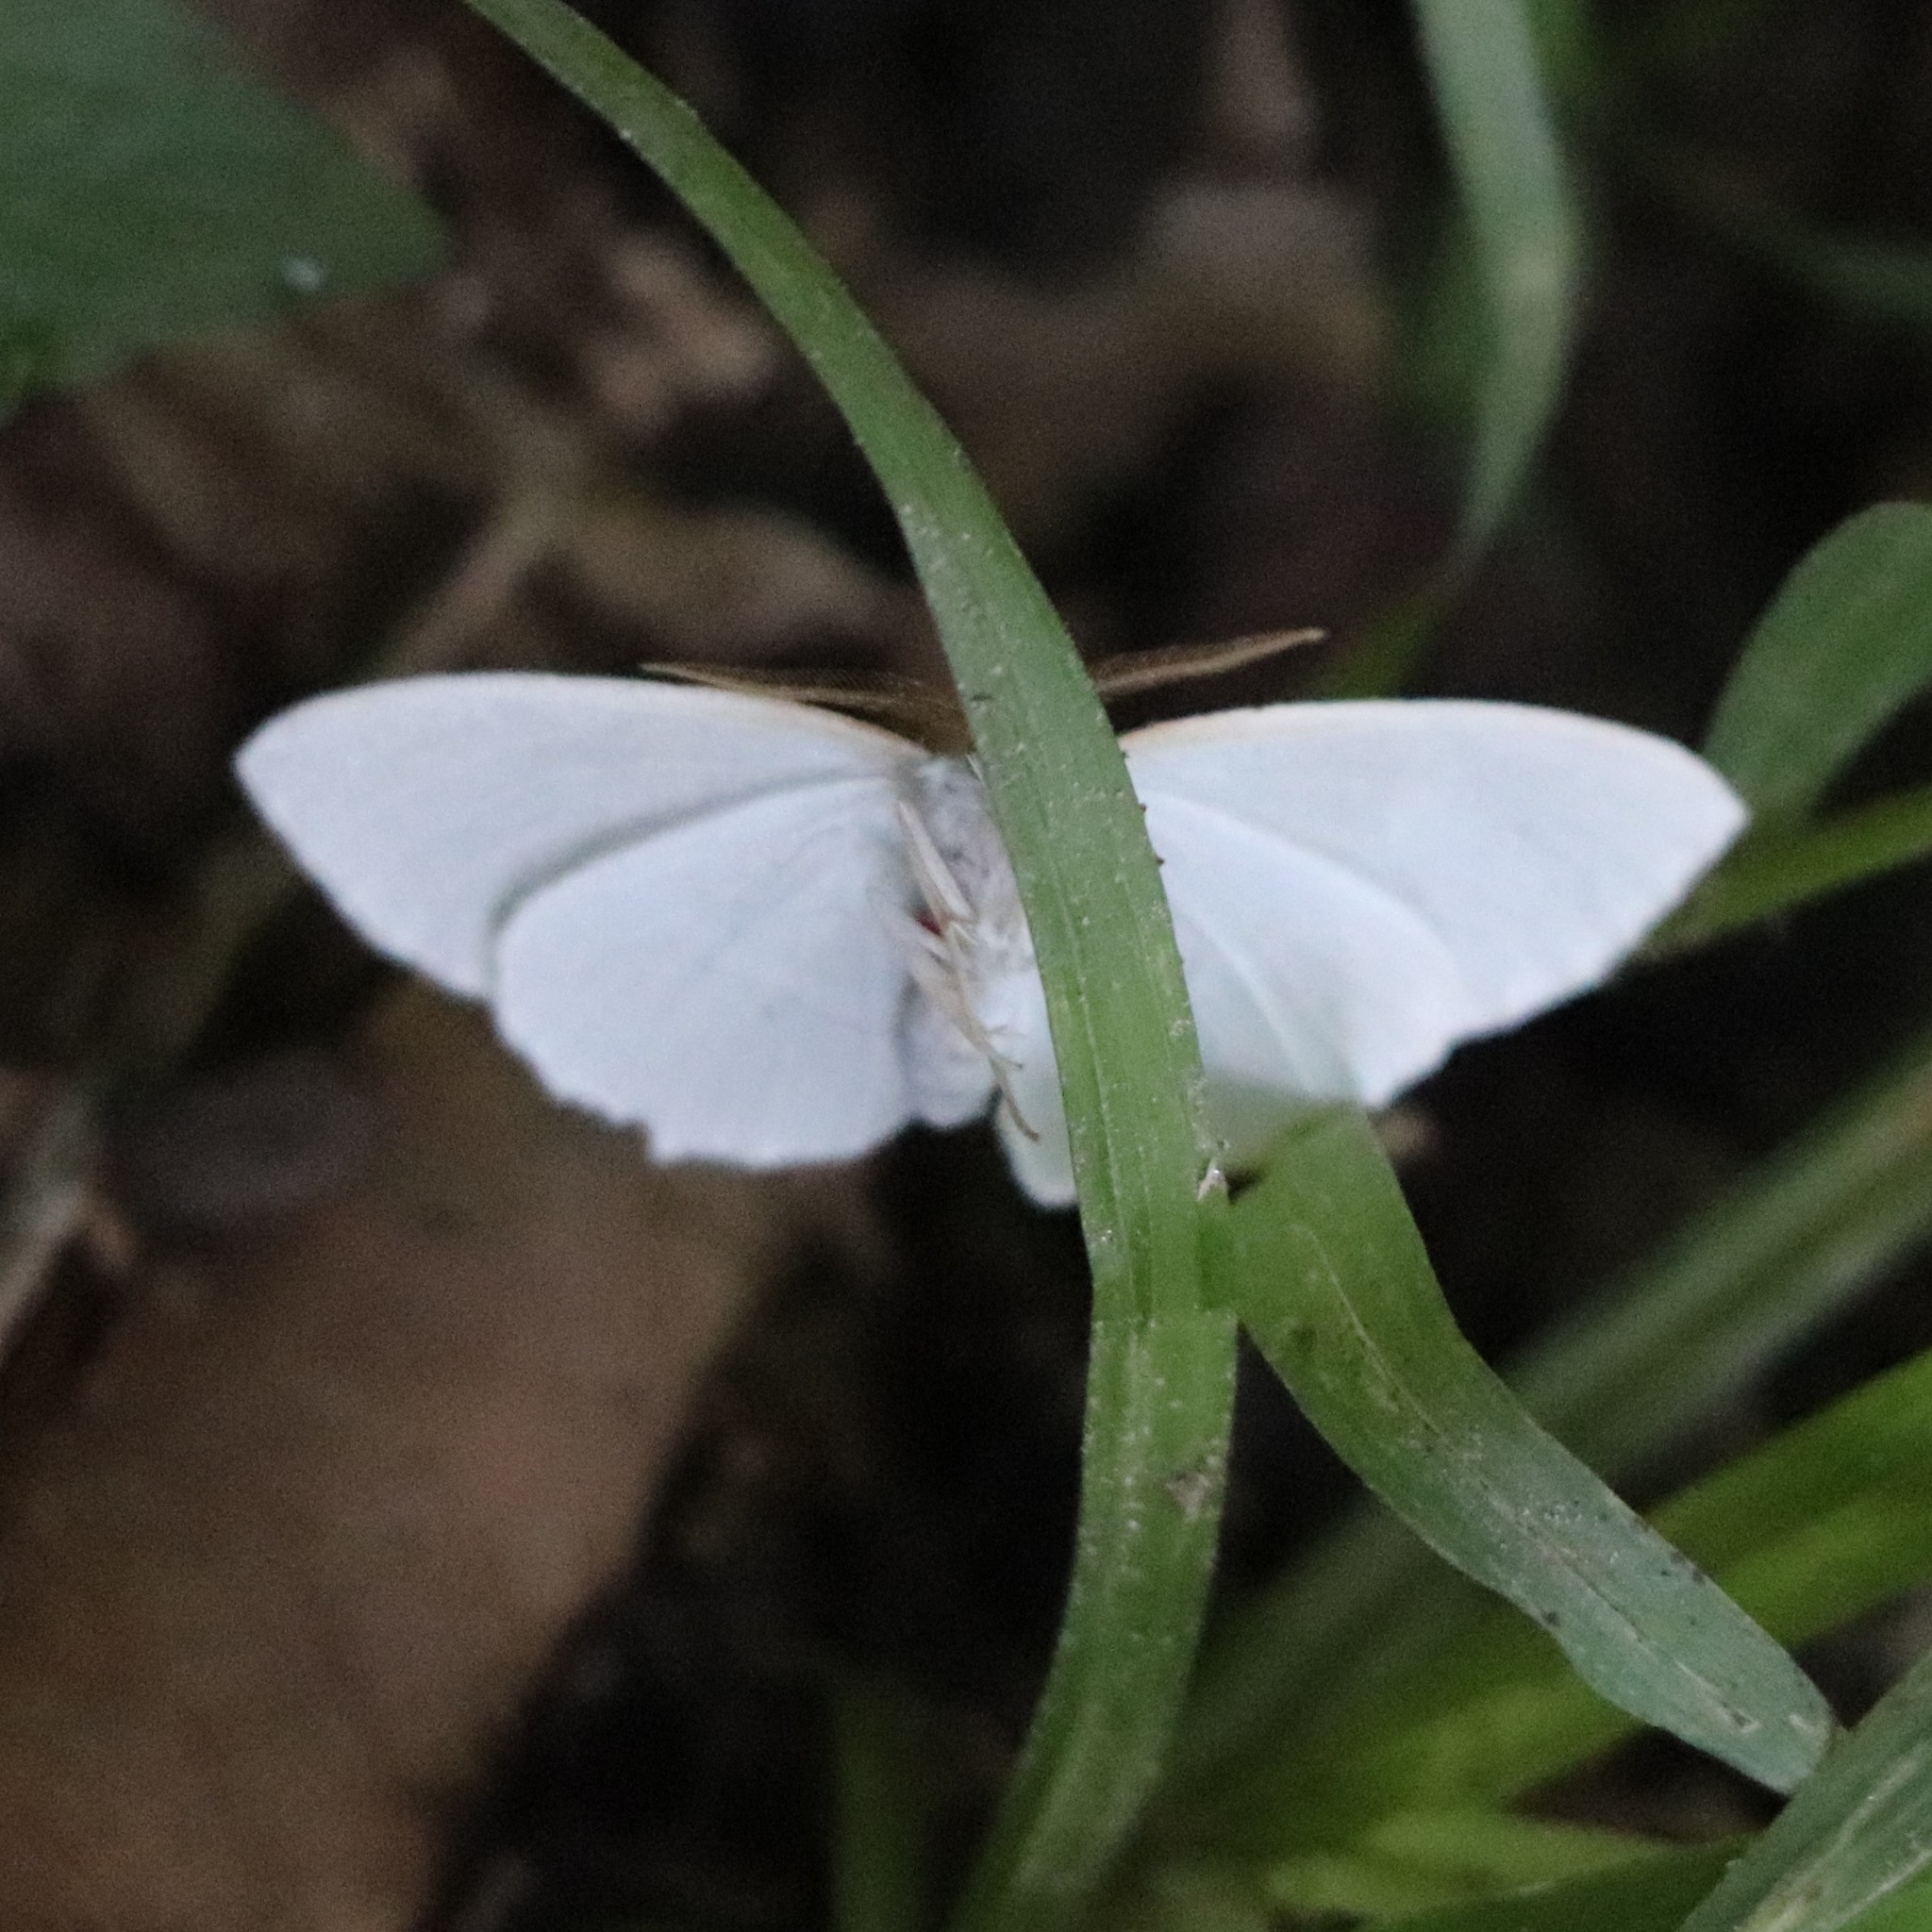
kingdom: Animalia
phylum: Arthropoda
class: Insecta
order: Lepidoptera
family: Geometridae
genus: Campaea
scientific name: Campaea perlata
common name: Fringed looper
